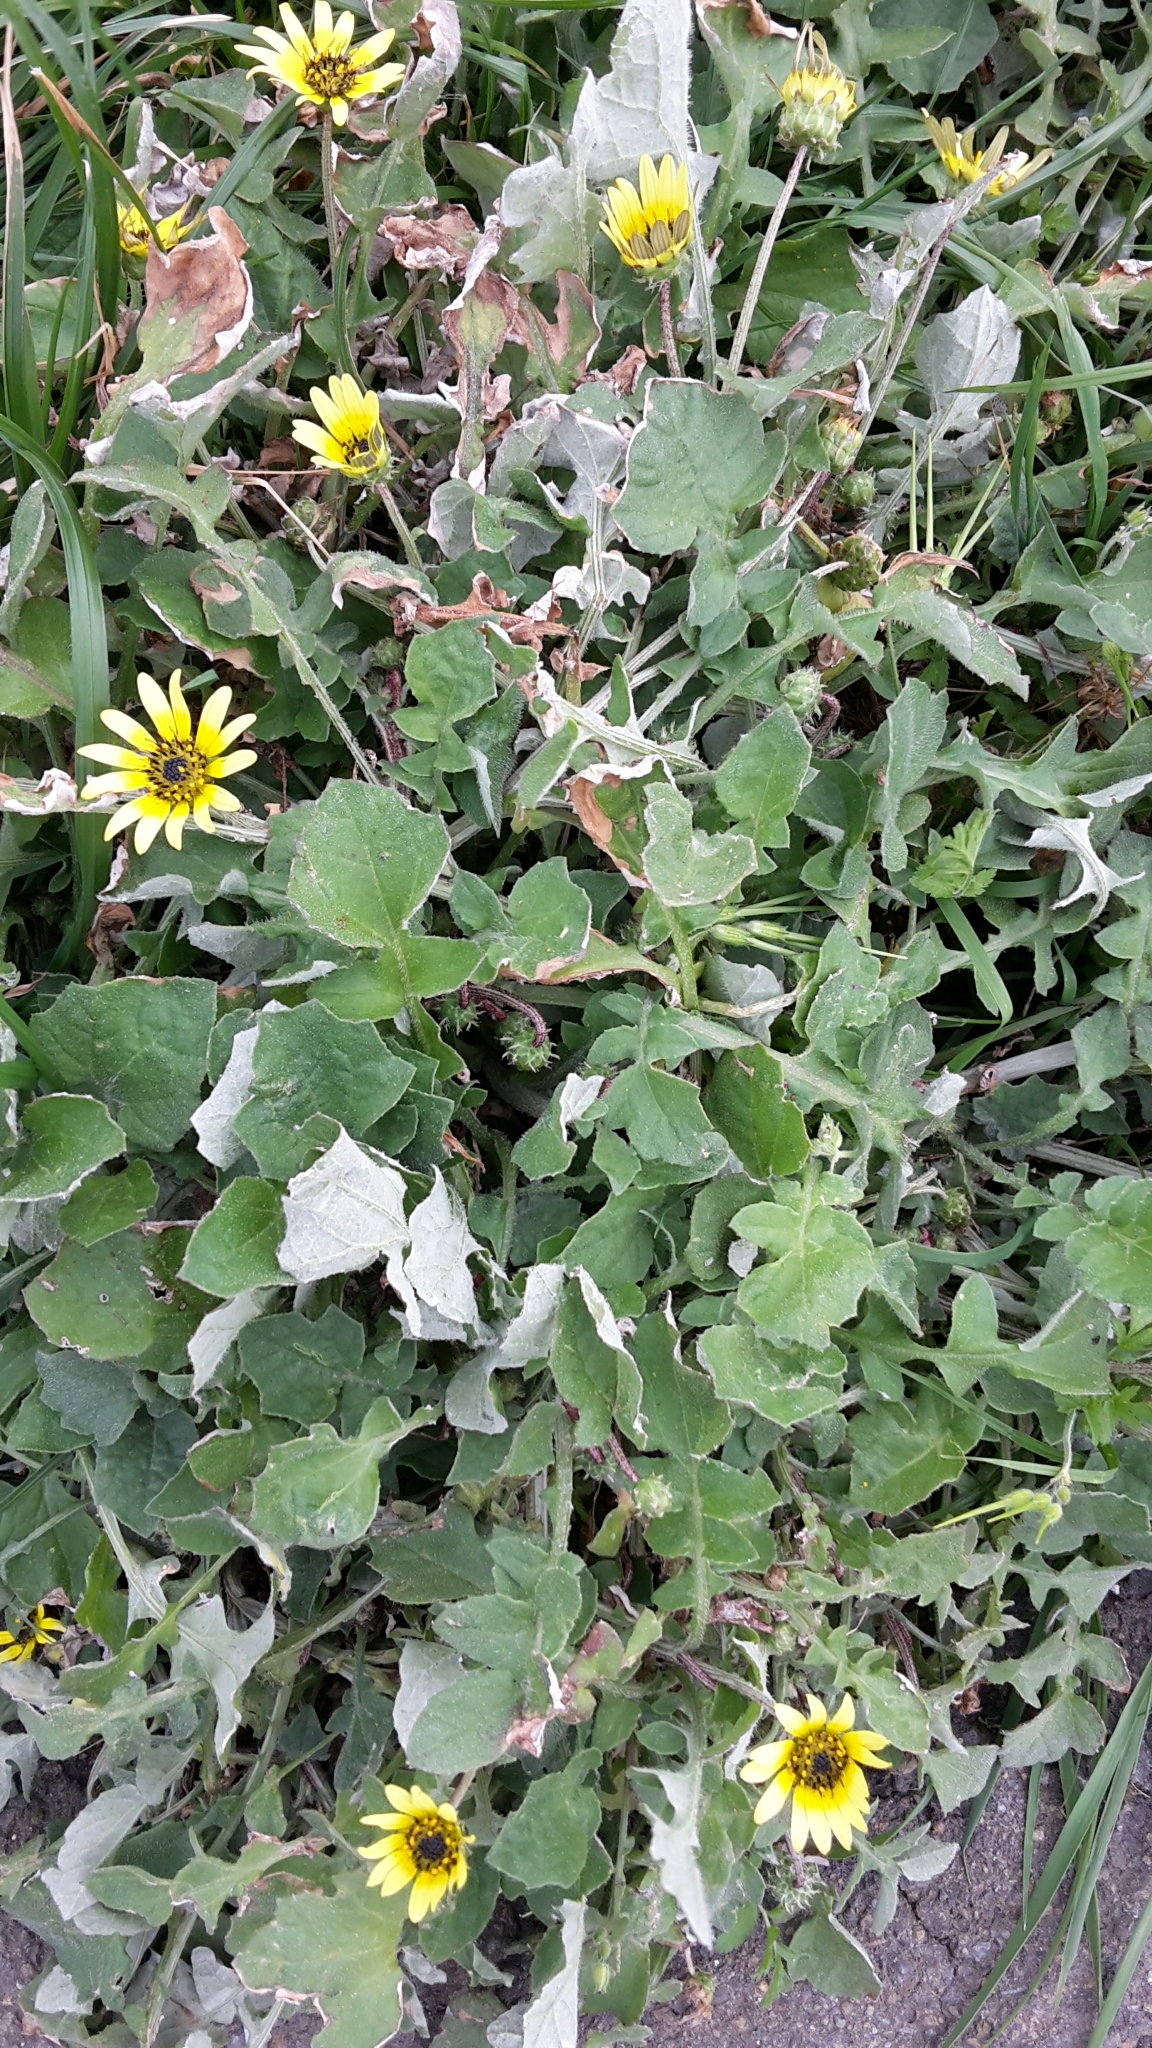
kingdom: Plantae
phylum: Tracheophyta
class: Magnoliopsida
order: Asterales
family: Asteraceae
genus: Arctotheca
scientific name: Arctotheca calendula
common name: Capeweed
